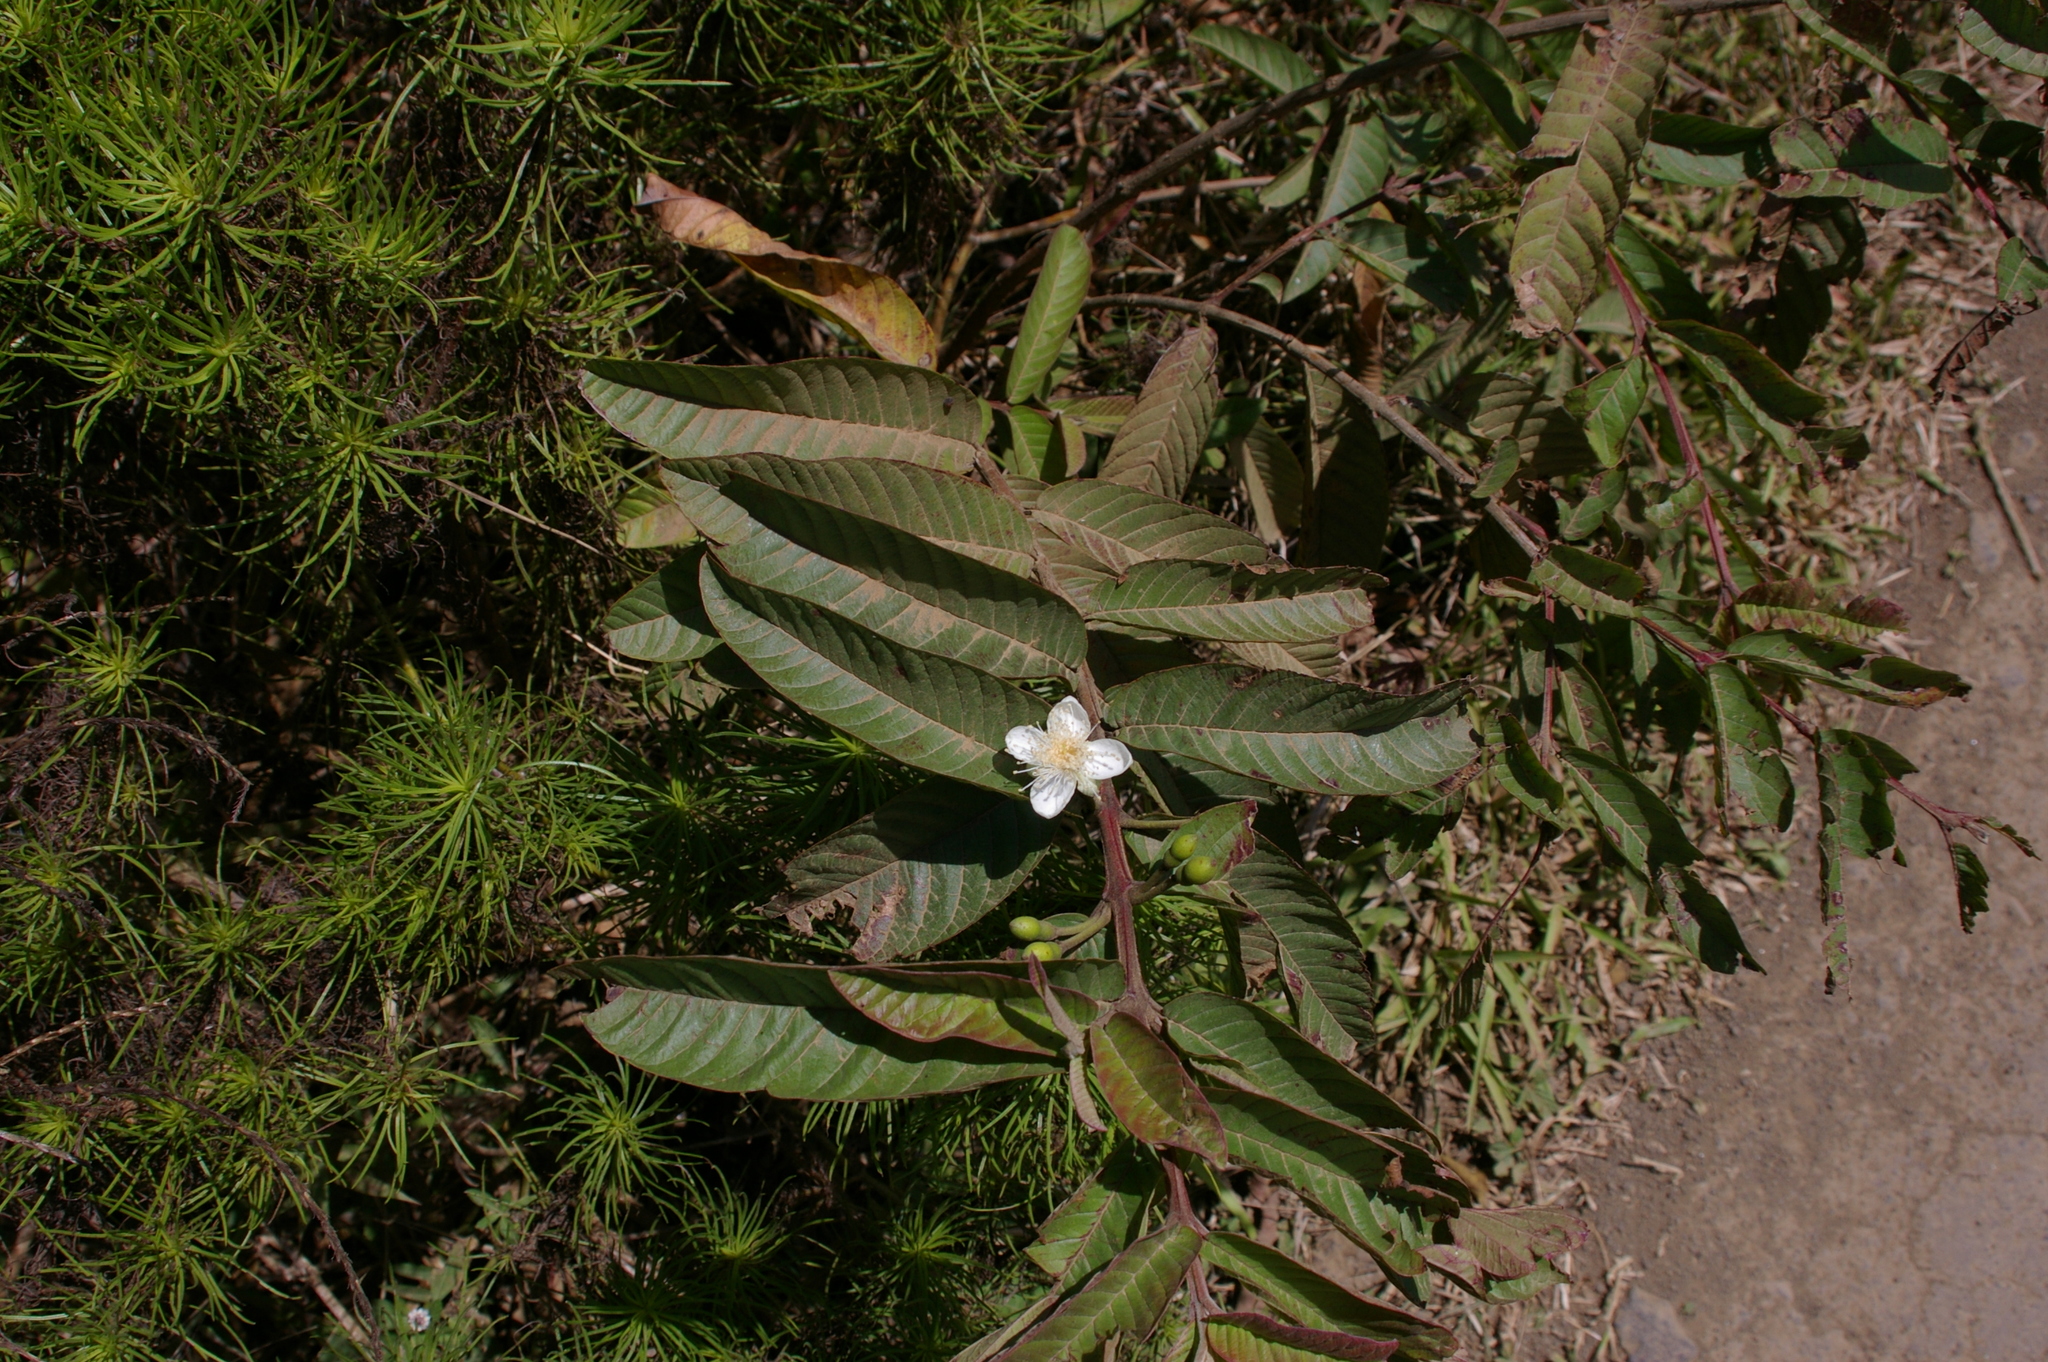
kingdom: Plantae
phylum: Tracheophyta
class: Magnoliopsida
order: Myrtales
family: Myrtaceae
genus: Psidium
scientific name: Psidium guajava
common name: Guava
